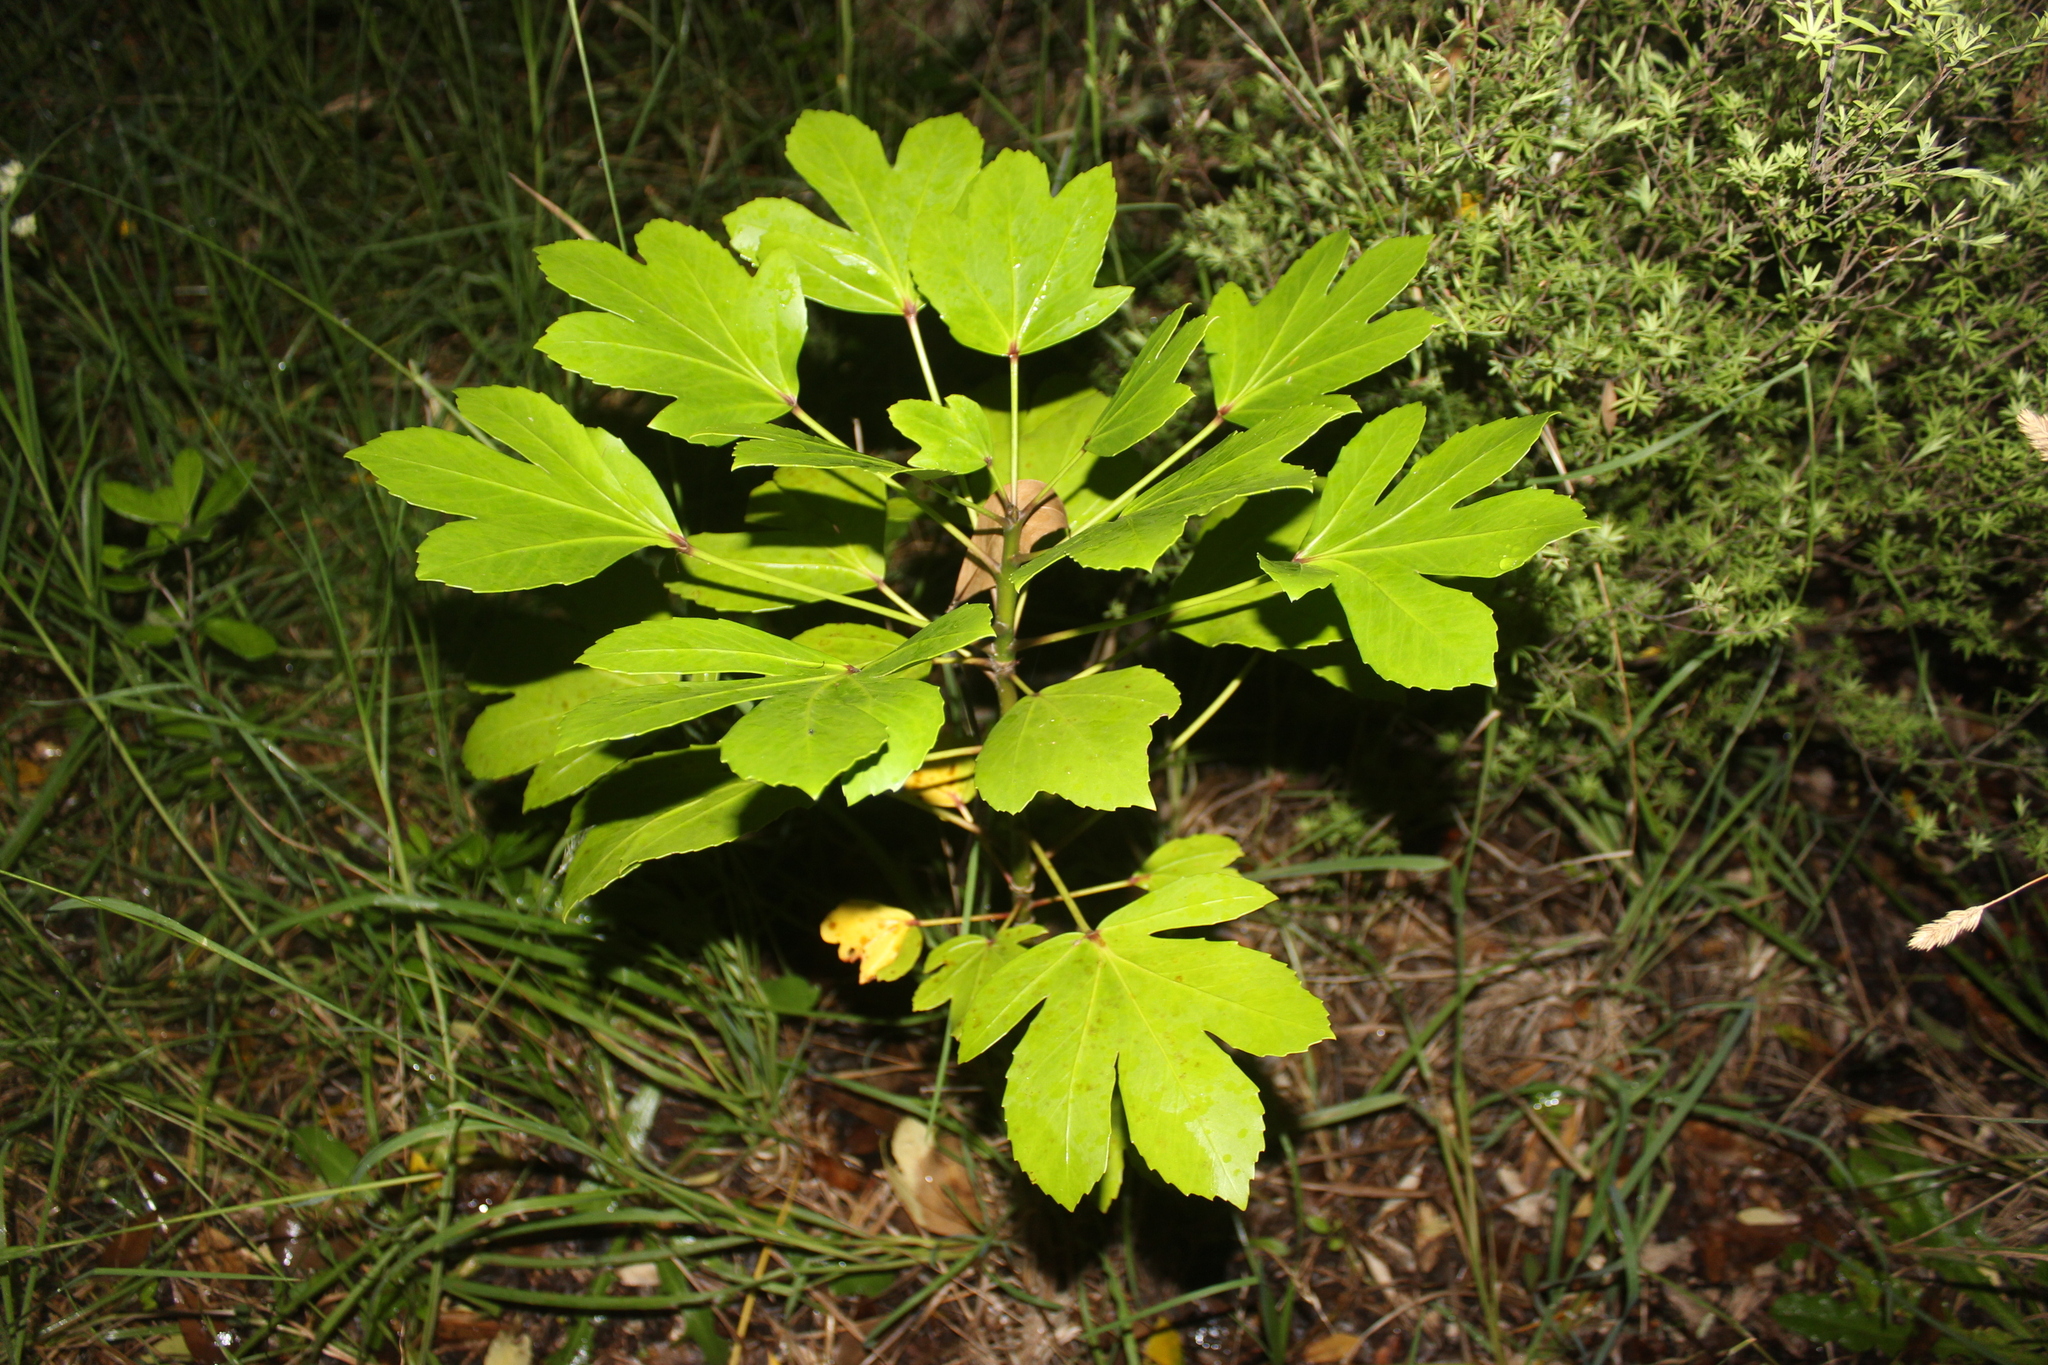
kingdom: Plantae
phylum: Tracheophyta
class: Magnoliopsida
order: Apiales
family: Araliaceae
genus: Pseudopanax
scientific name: Pseudopanax
